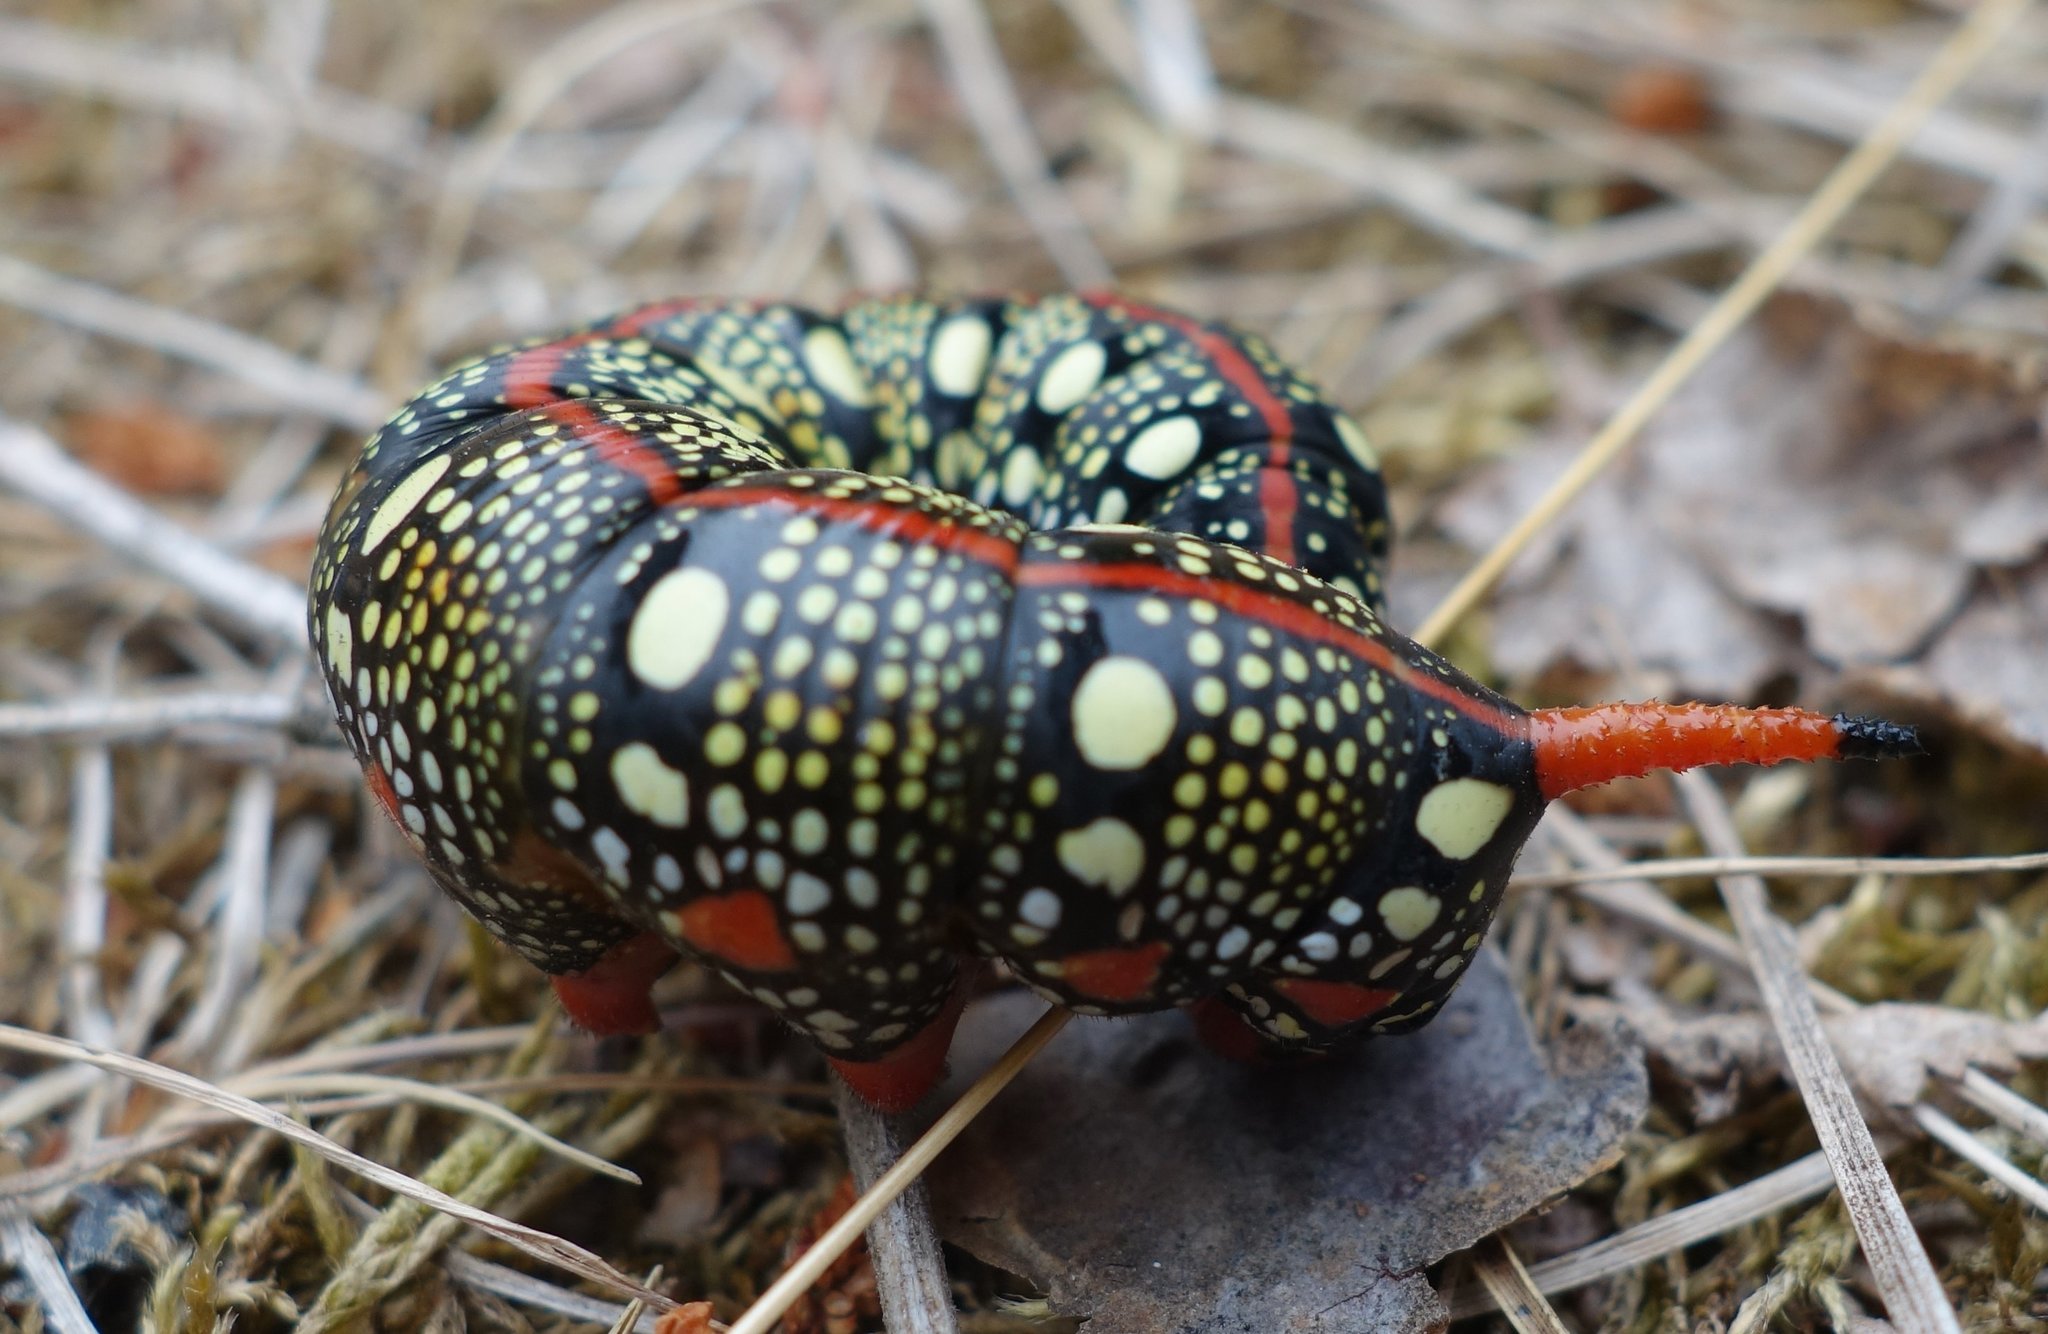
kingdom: Animalia
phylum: Arthropoda
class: Insecta
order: Lepidoptera
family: Sphingidae
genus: Hyles
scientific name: Hyles euphorbiae
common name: Spurge hawk-moth
